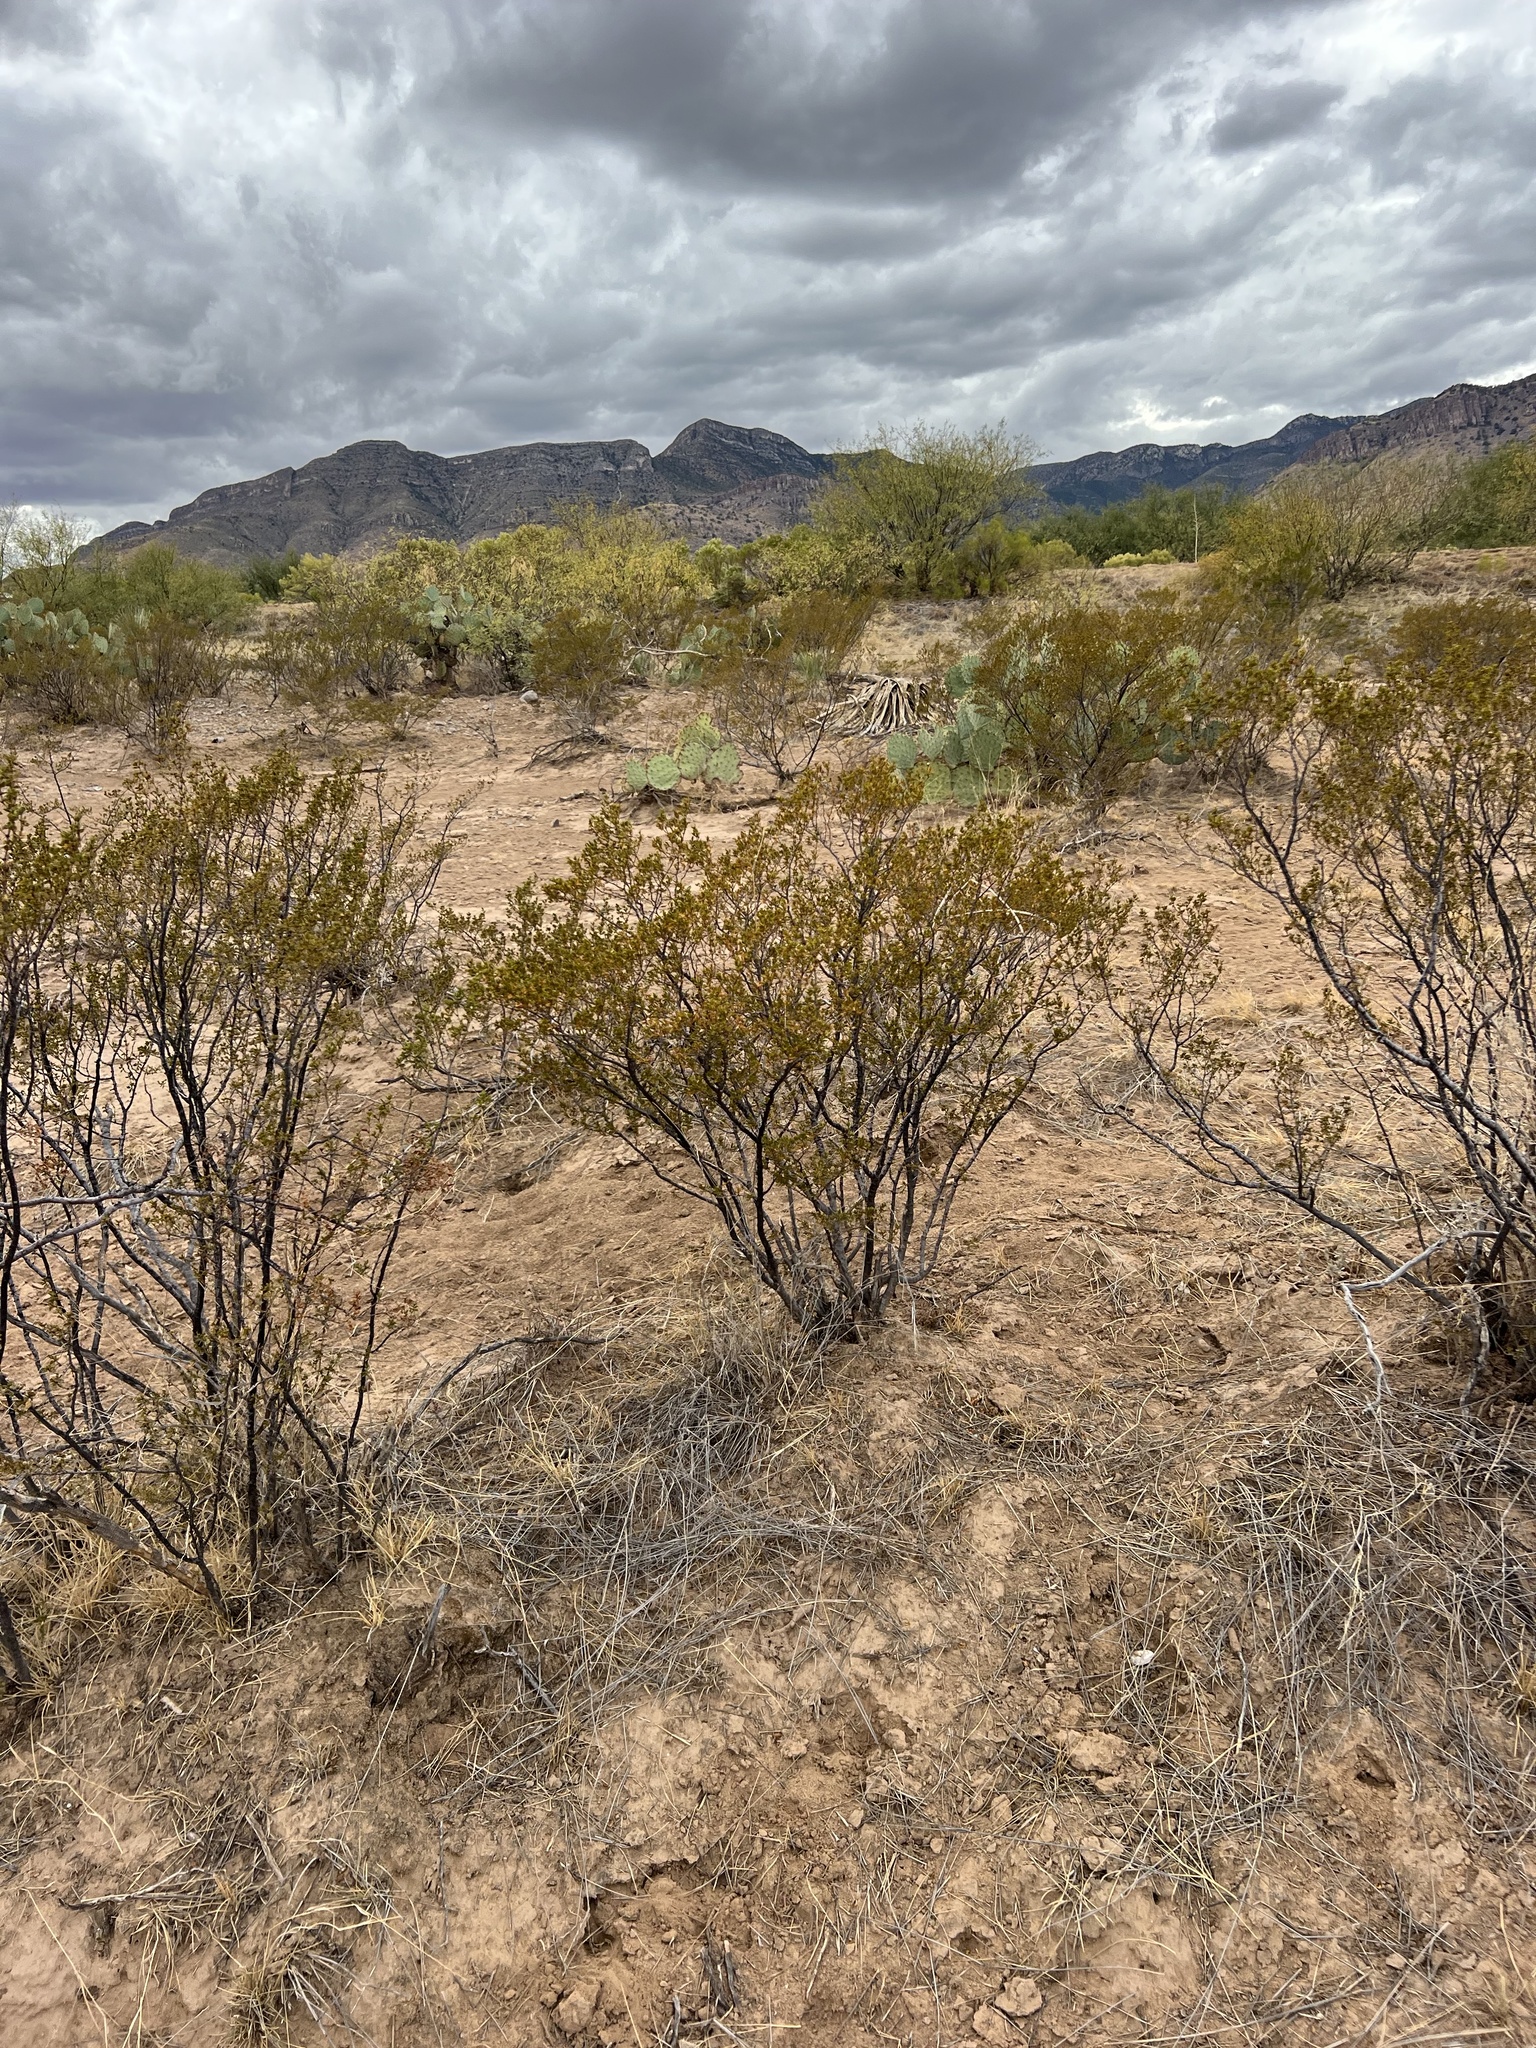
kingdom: Plantae
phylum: Tracheophyta
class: Magnoliopsida
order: Zygophyllales
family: Zygophyllaceae
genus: Larrea
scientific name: Larrea tridentata
